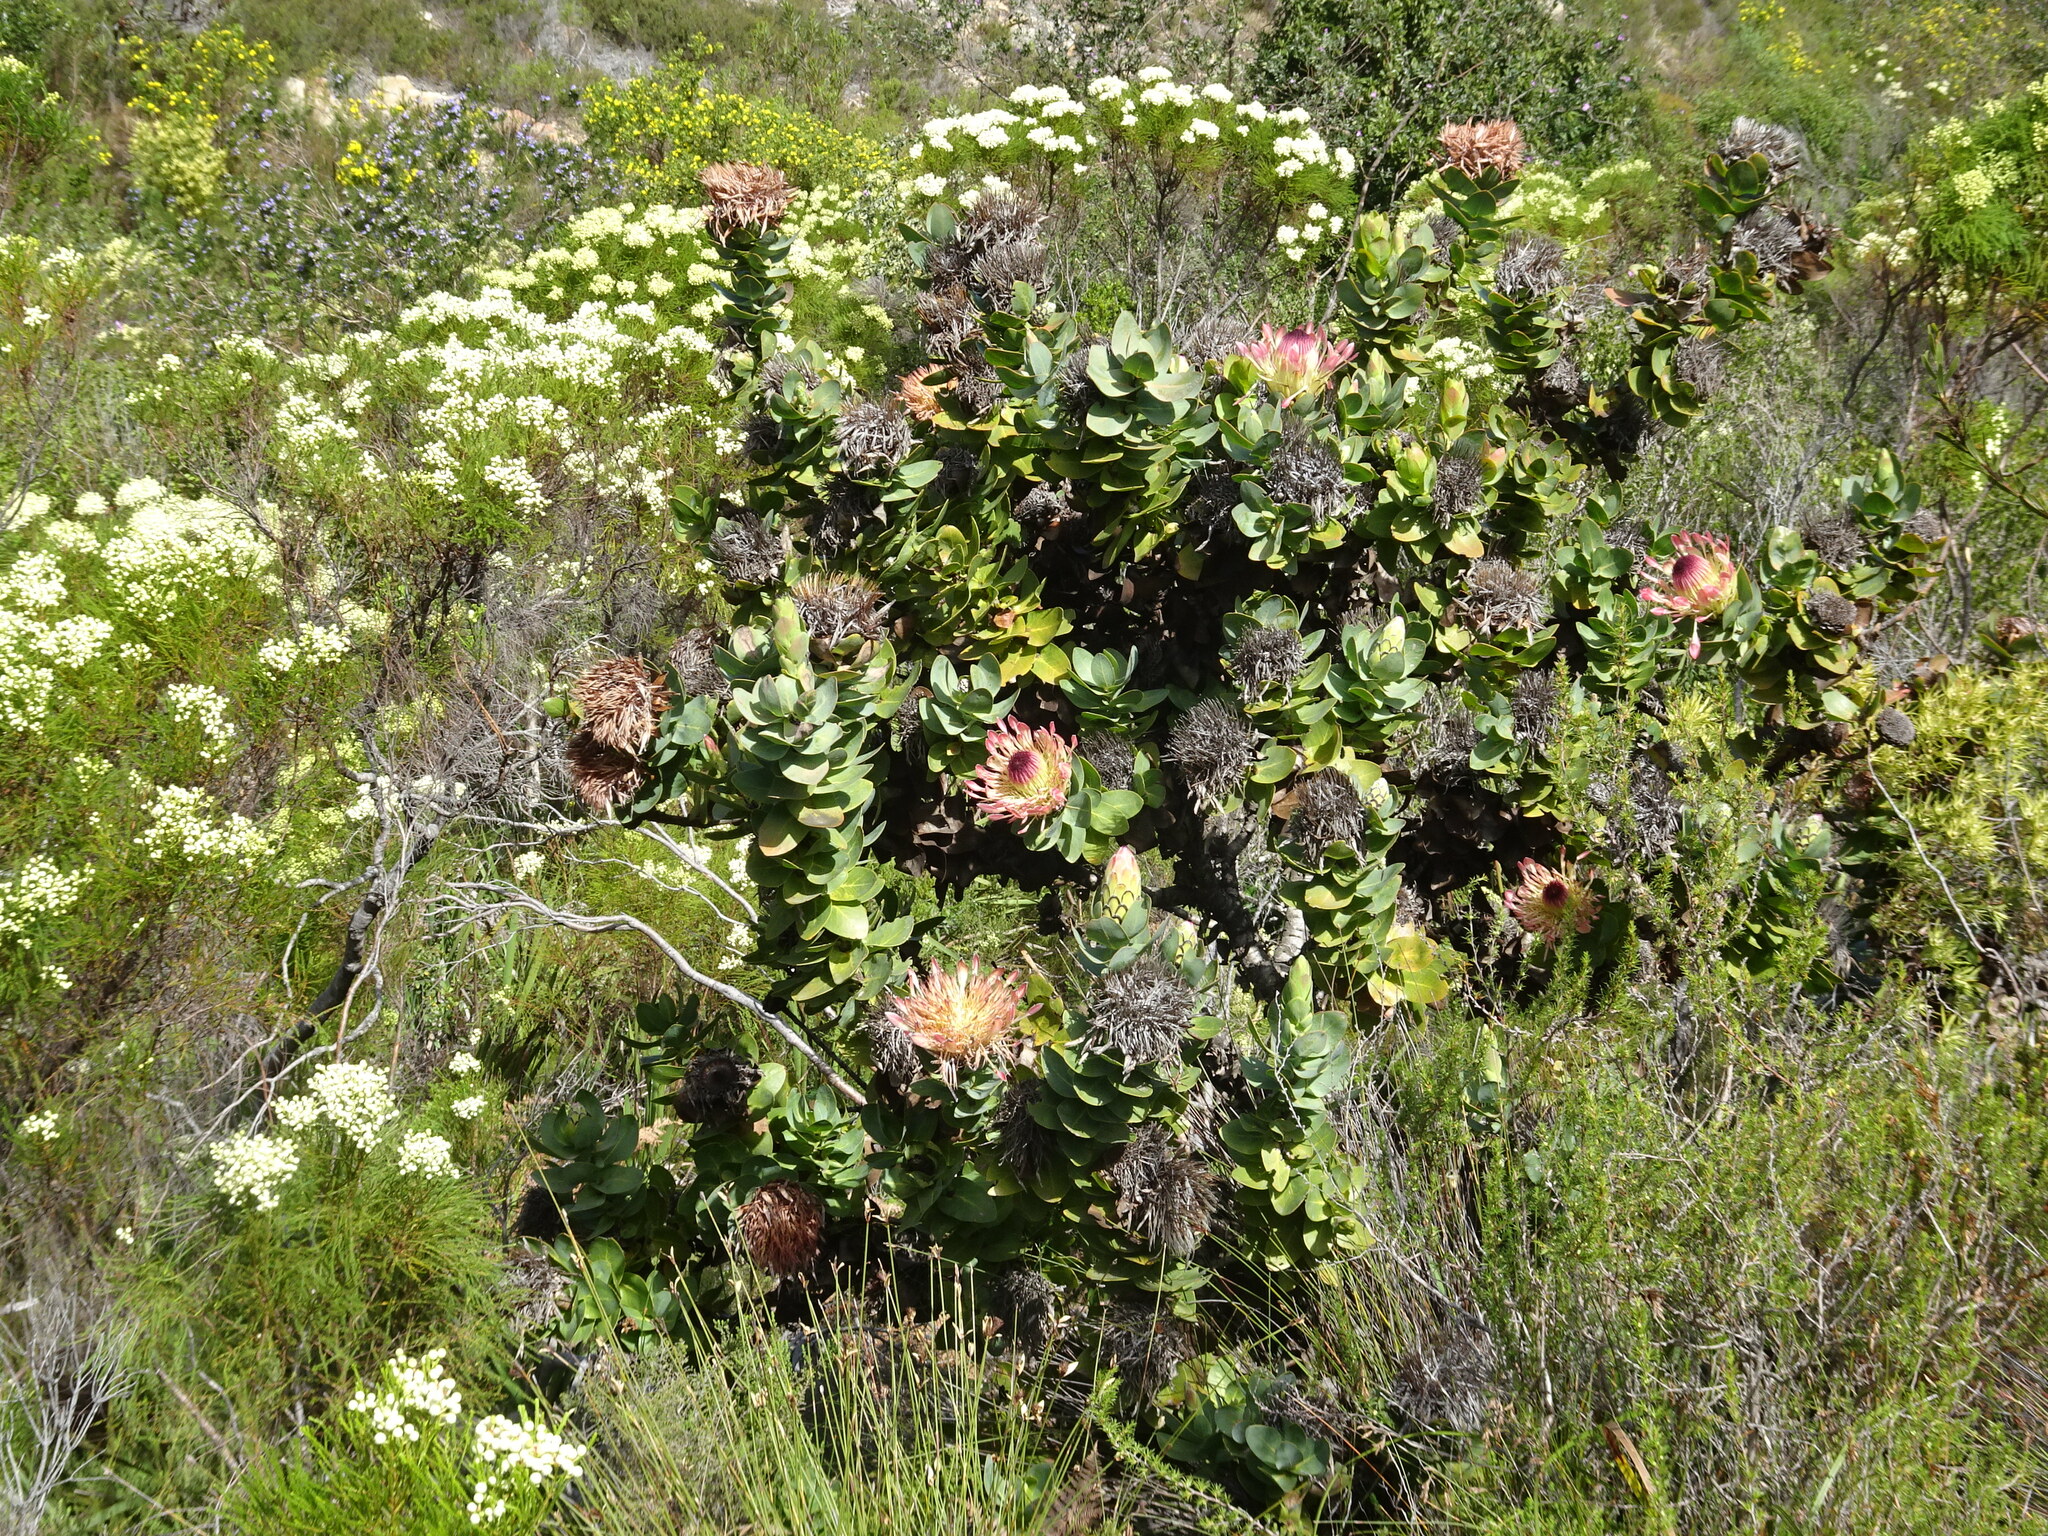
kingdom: Plantae
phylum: Tracheophyta
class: Magnoliopsida
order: Proteales
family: Proteaceae
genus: Protea
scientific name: Protea eximia
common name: Broad-leaved sugarbush
